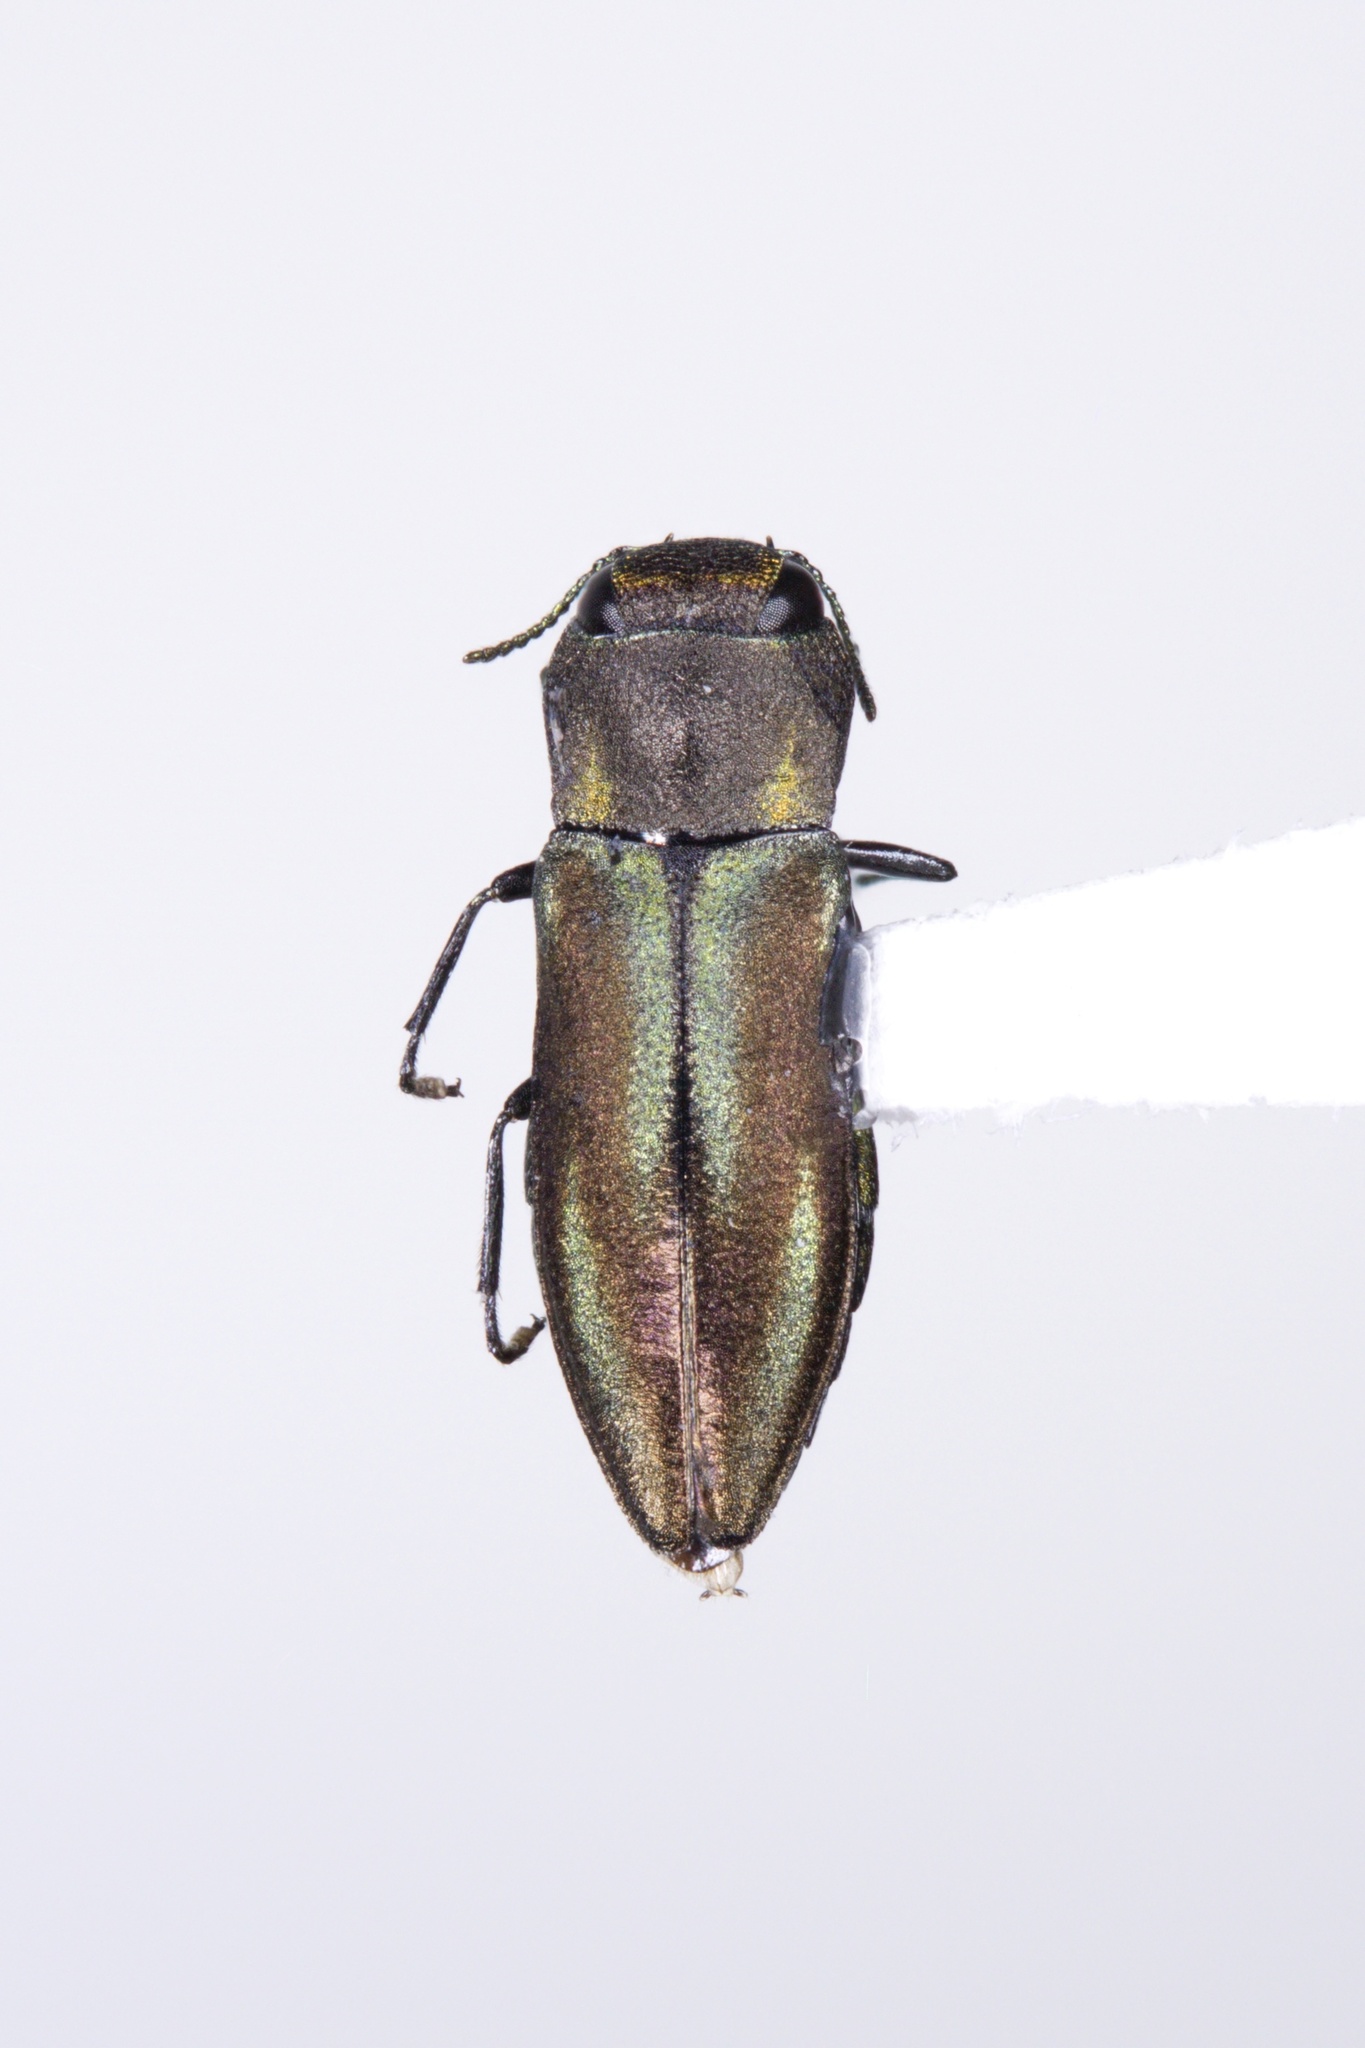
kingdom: Animalia
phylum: Arthropoda
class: Insecta
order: Coleoptera
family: Buprestidae
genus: Anthaxia
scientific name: Anthaxia quercata
